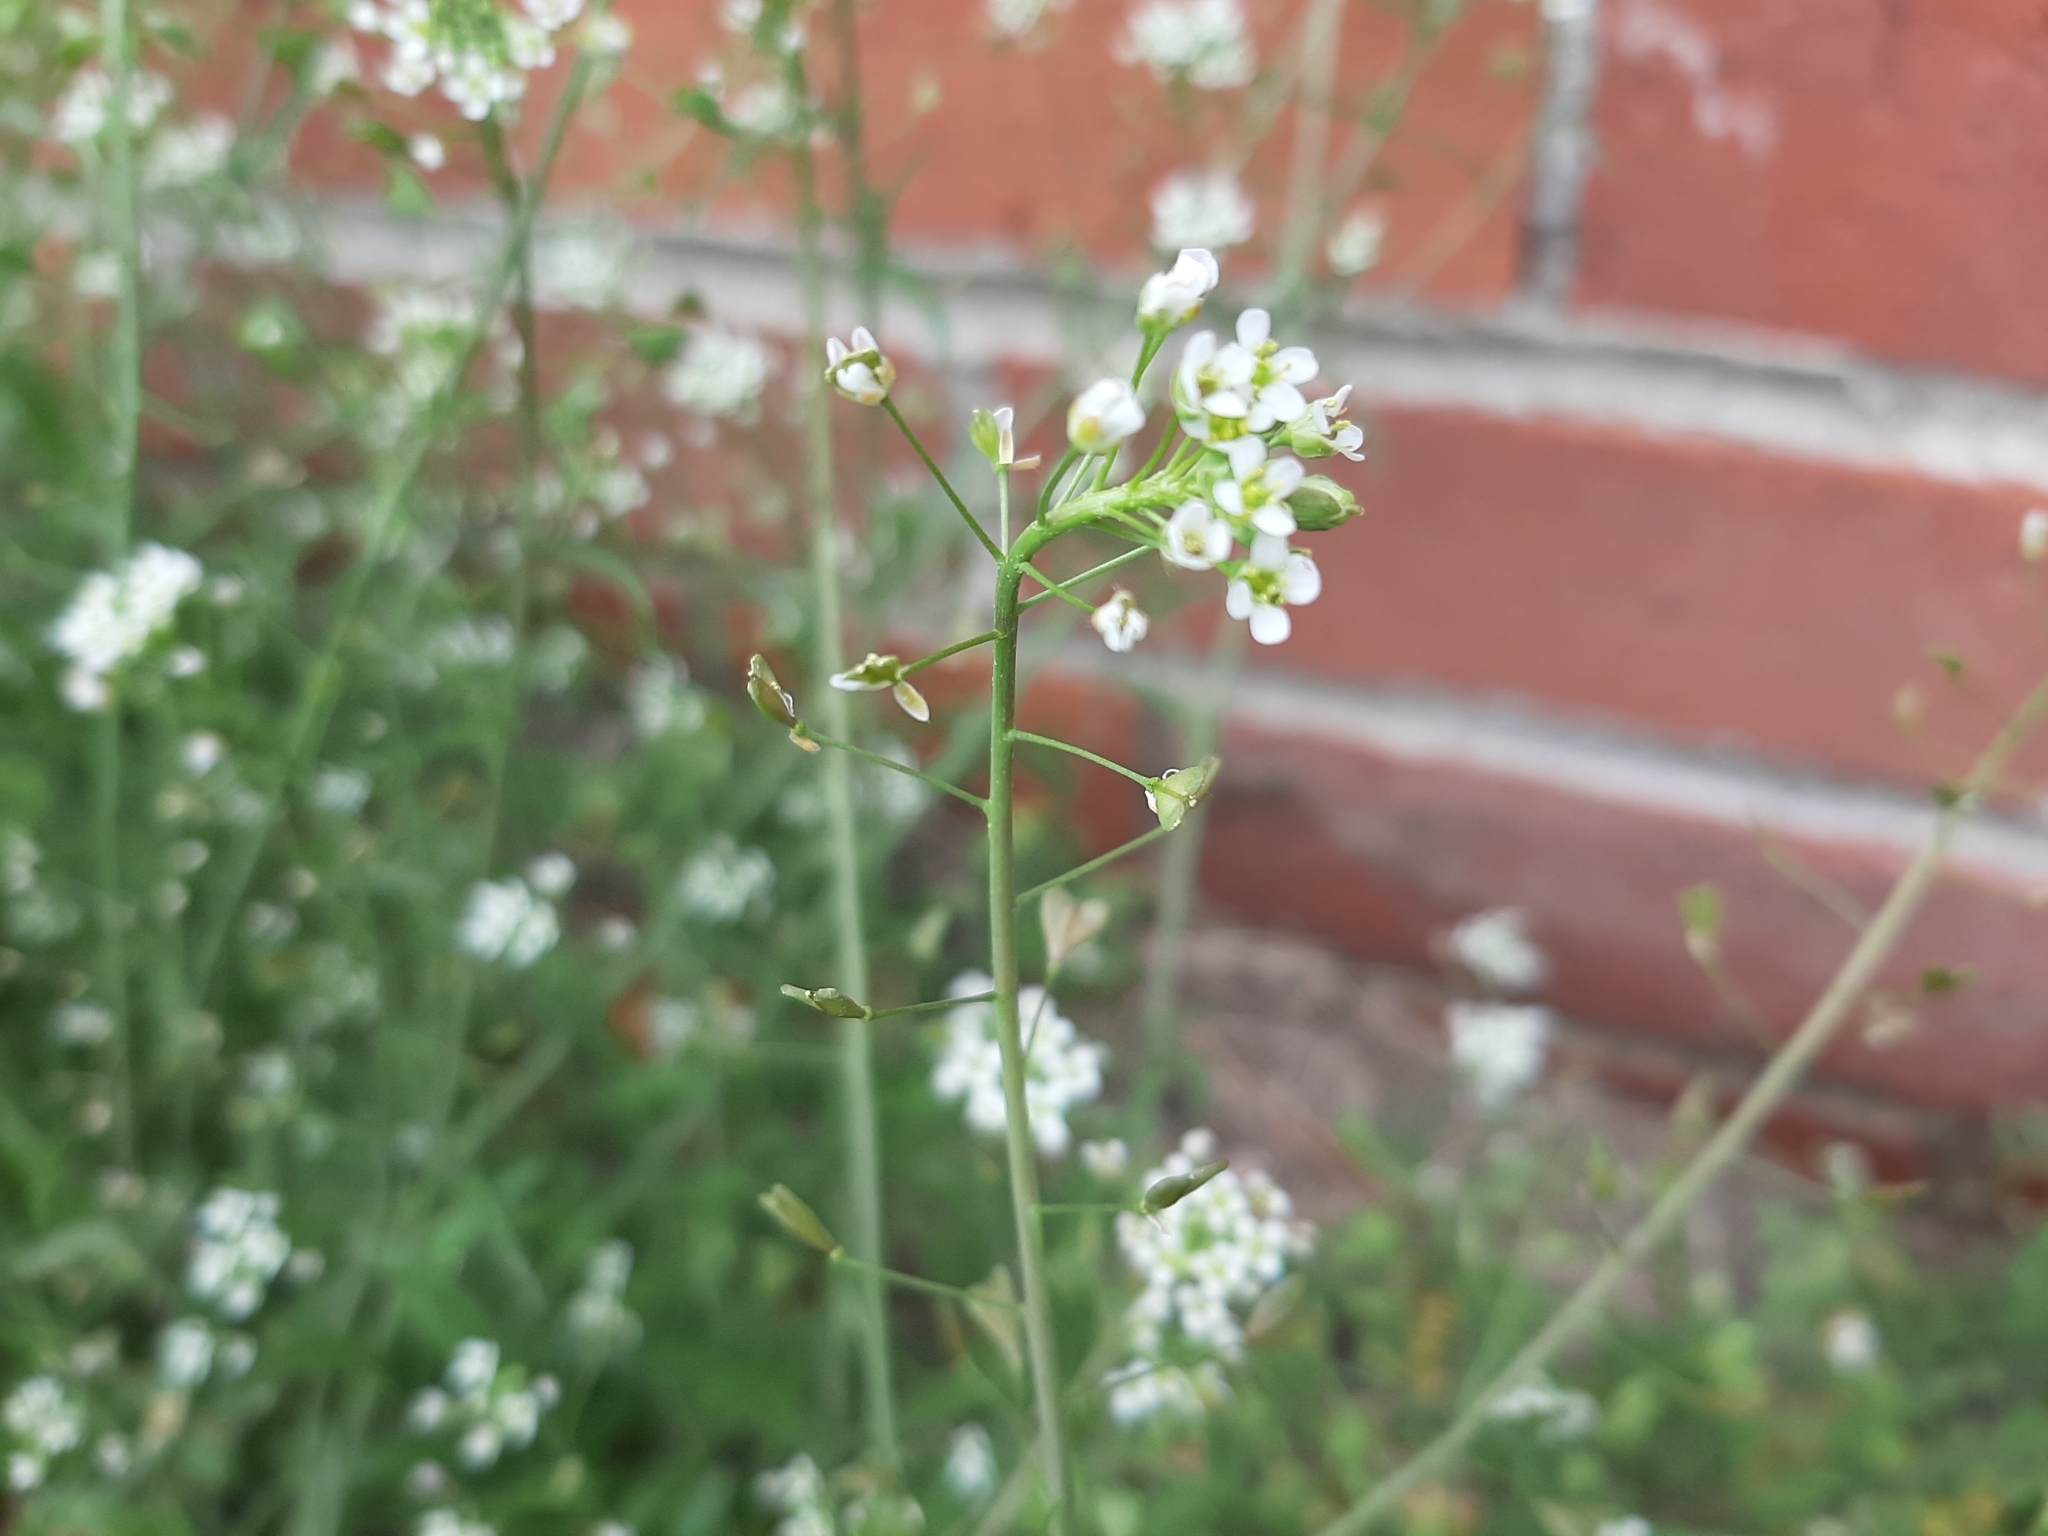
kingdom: Plantae
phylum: Tracheophyta
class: Magnoliopsida
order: Brassicales
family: Brassicaceae
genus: Capsella
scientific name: Capsella bursa-pastoris
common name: Shepherd's purse
